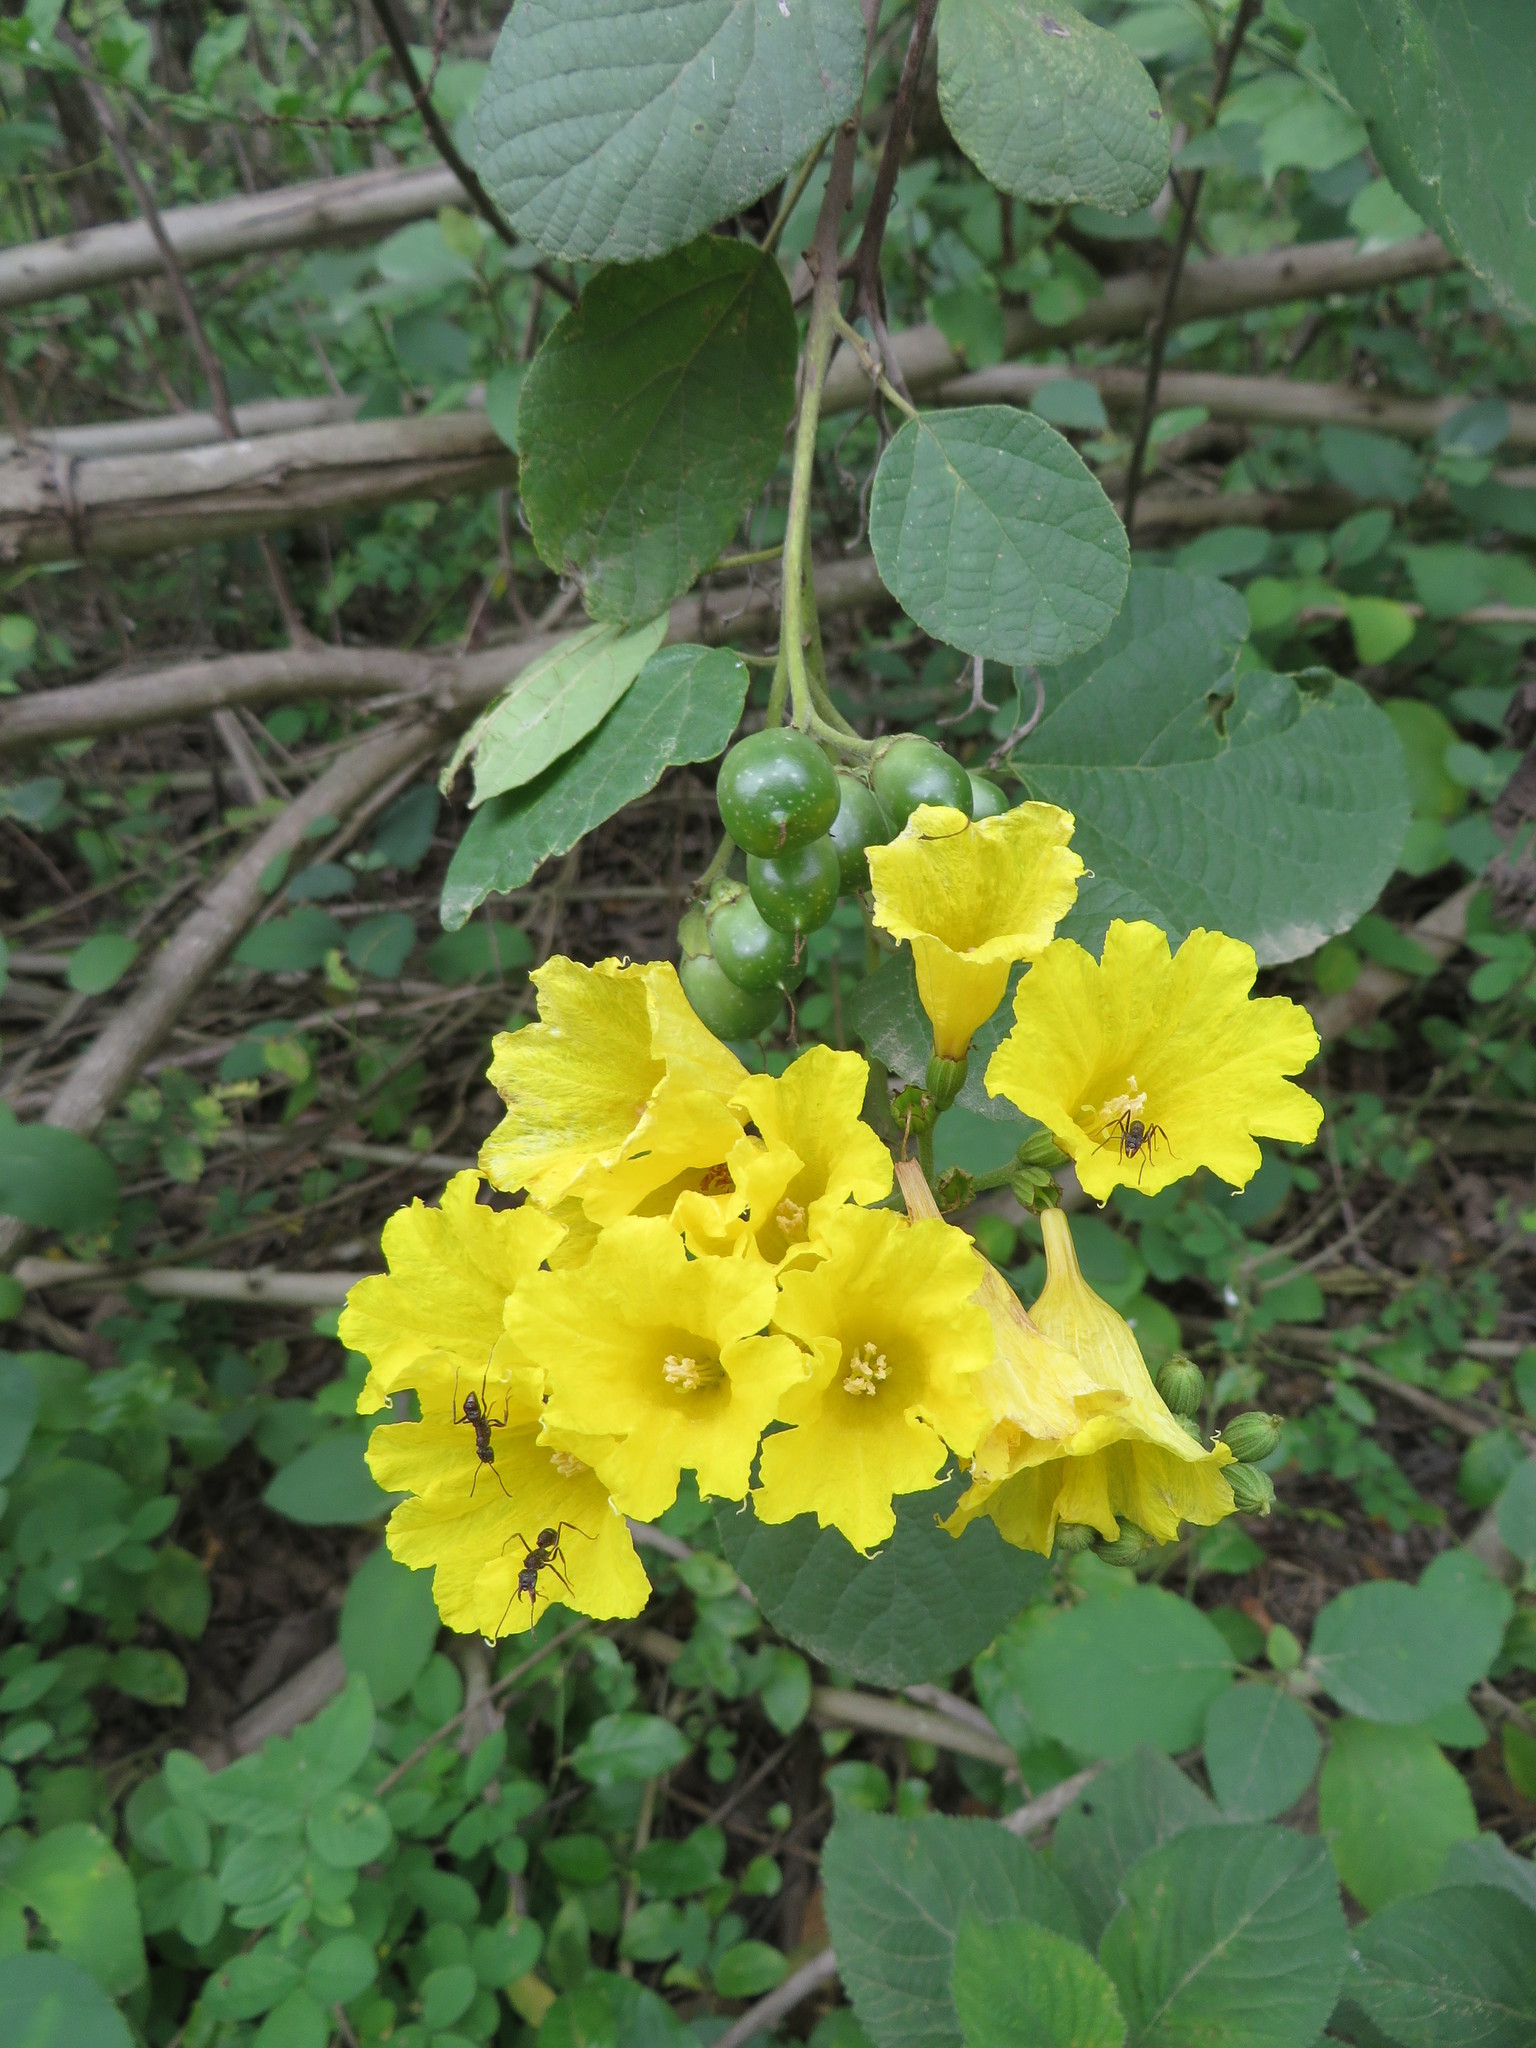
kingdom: Plantae
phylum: Tracheophyta
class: Magnoliopsida
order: Boraginales
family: Cordiaceae
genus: Cordia
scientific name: Cordia lutea
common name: Yellow geiger
